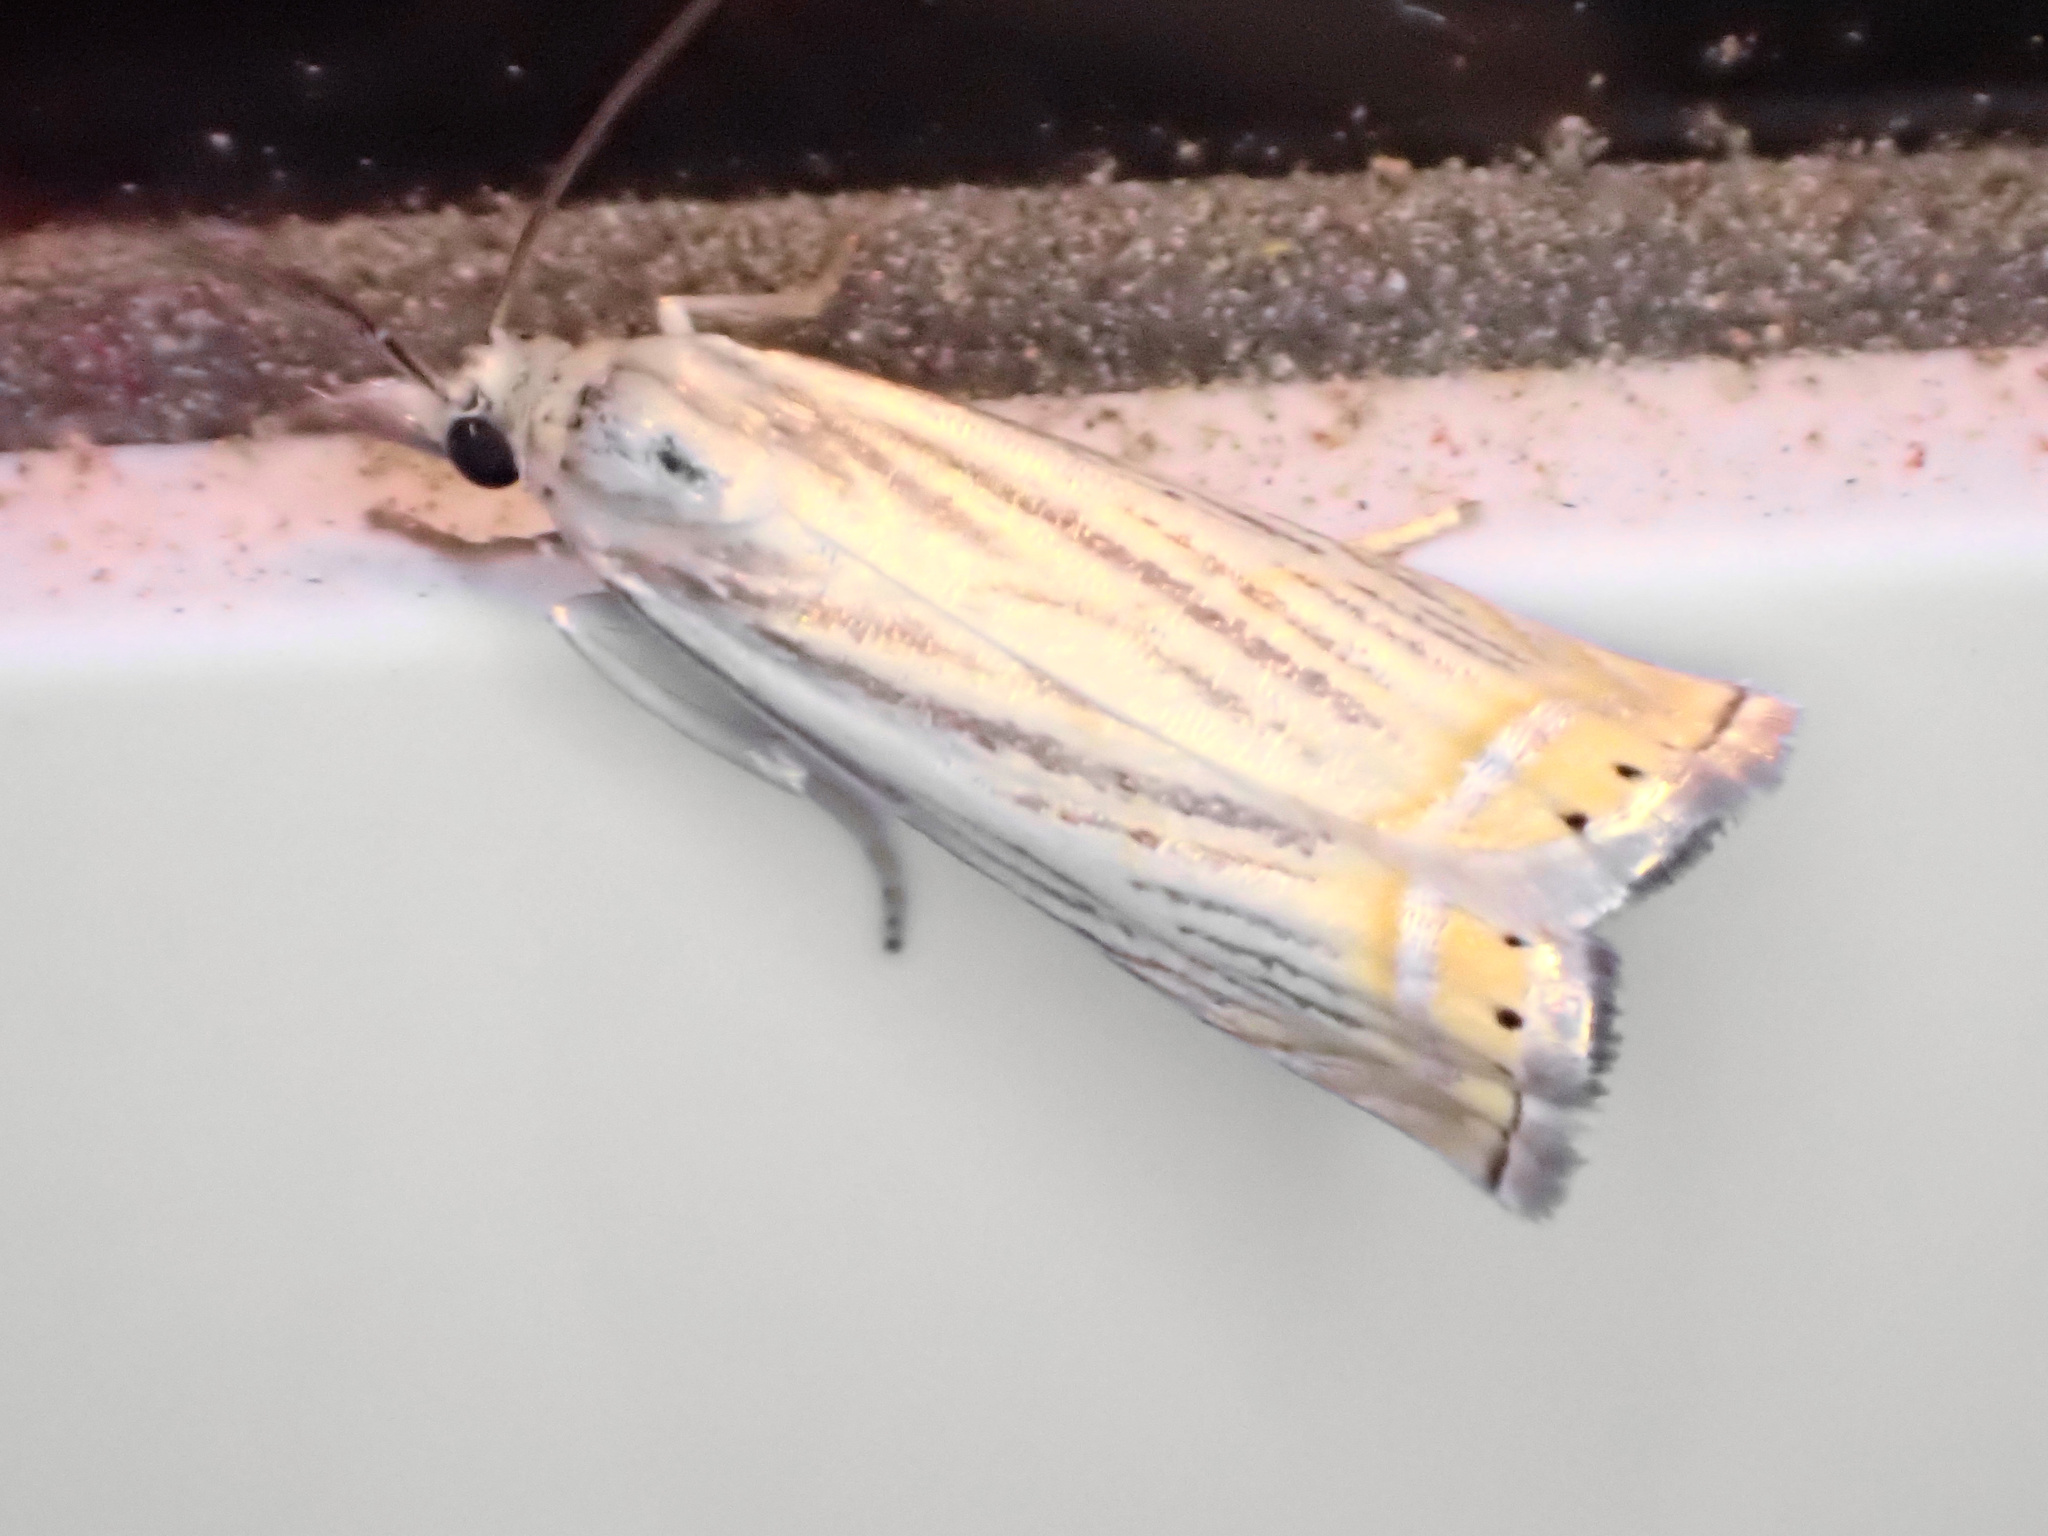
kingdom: Animalia
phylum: Arthropoda
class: Insecta
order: Lepidoptera
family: Crambidae
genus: Chrysoteuchia
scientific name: Chrysoteuchia topiarius
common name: Topiary grass-veneer
